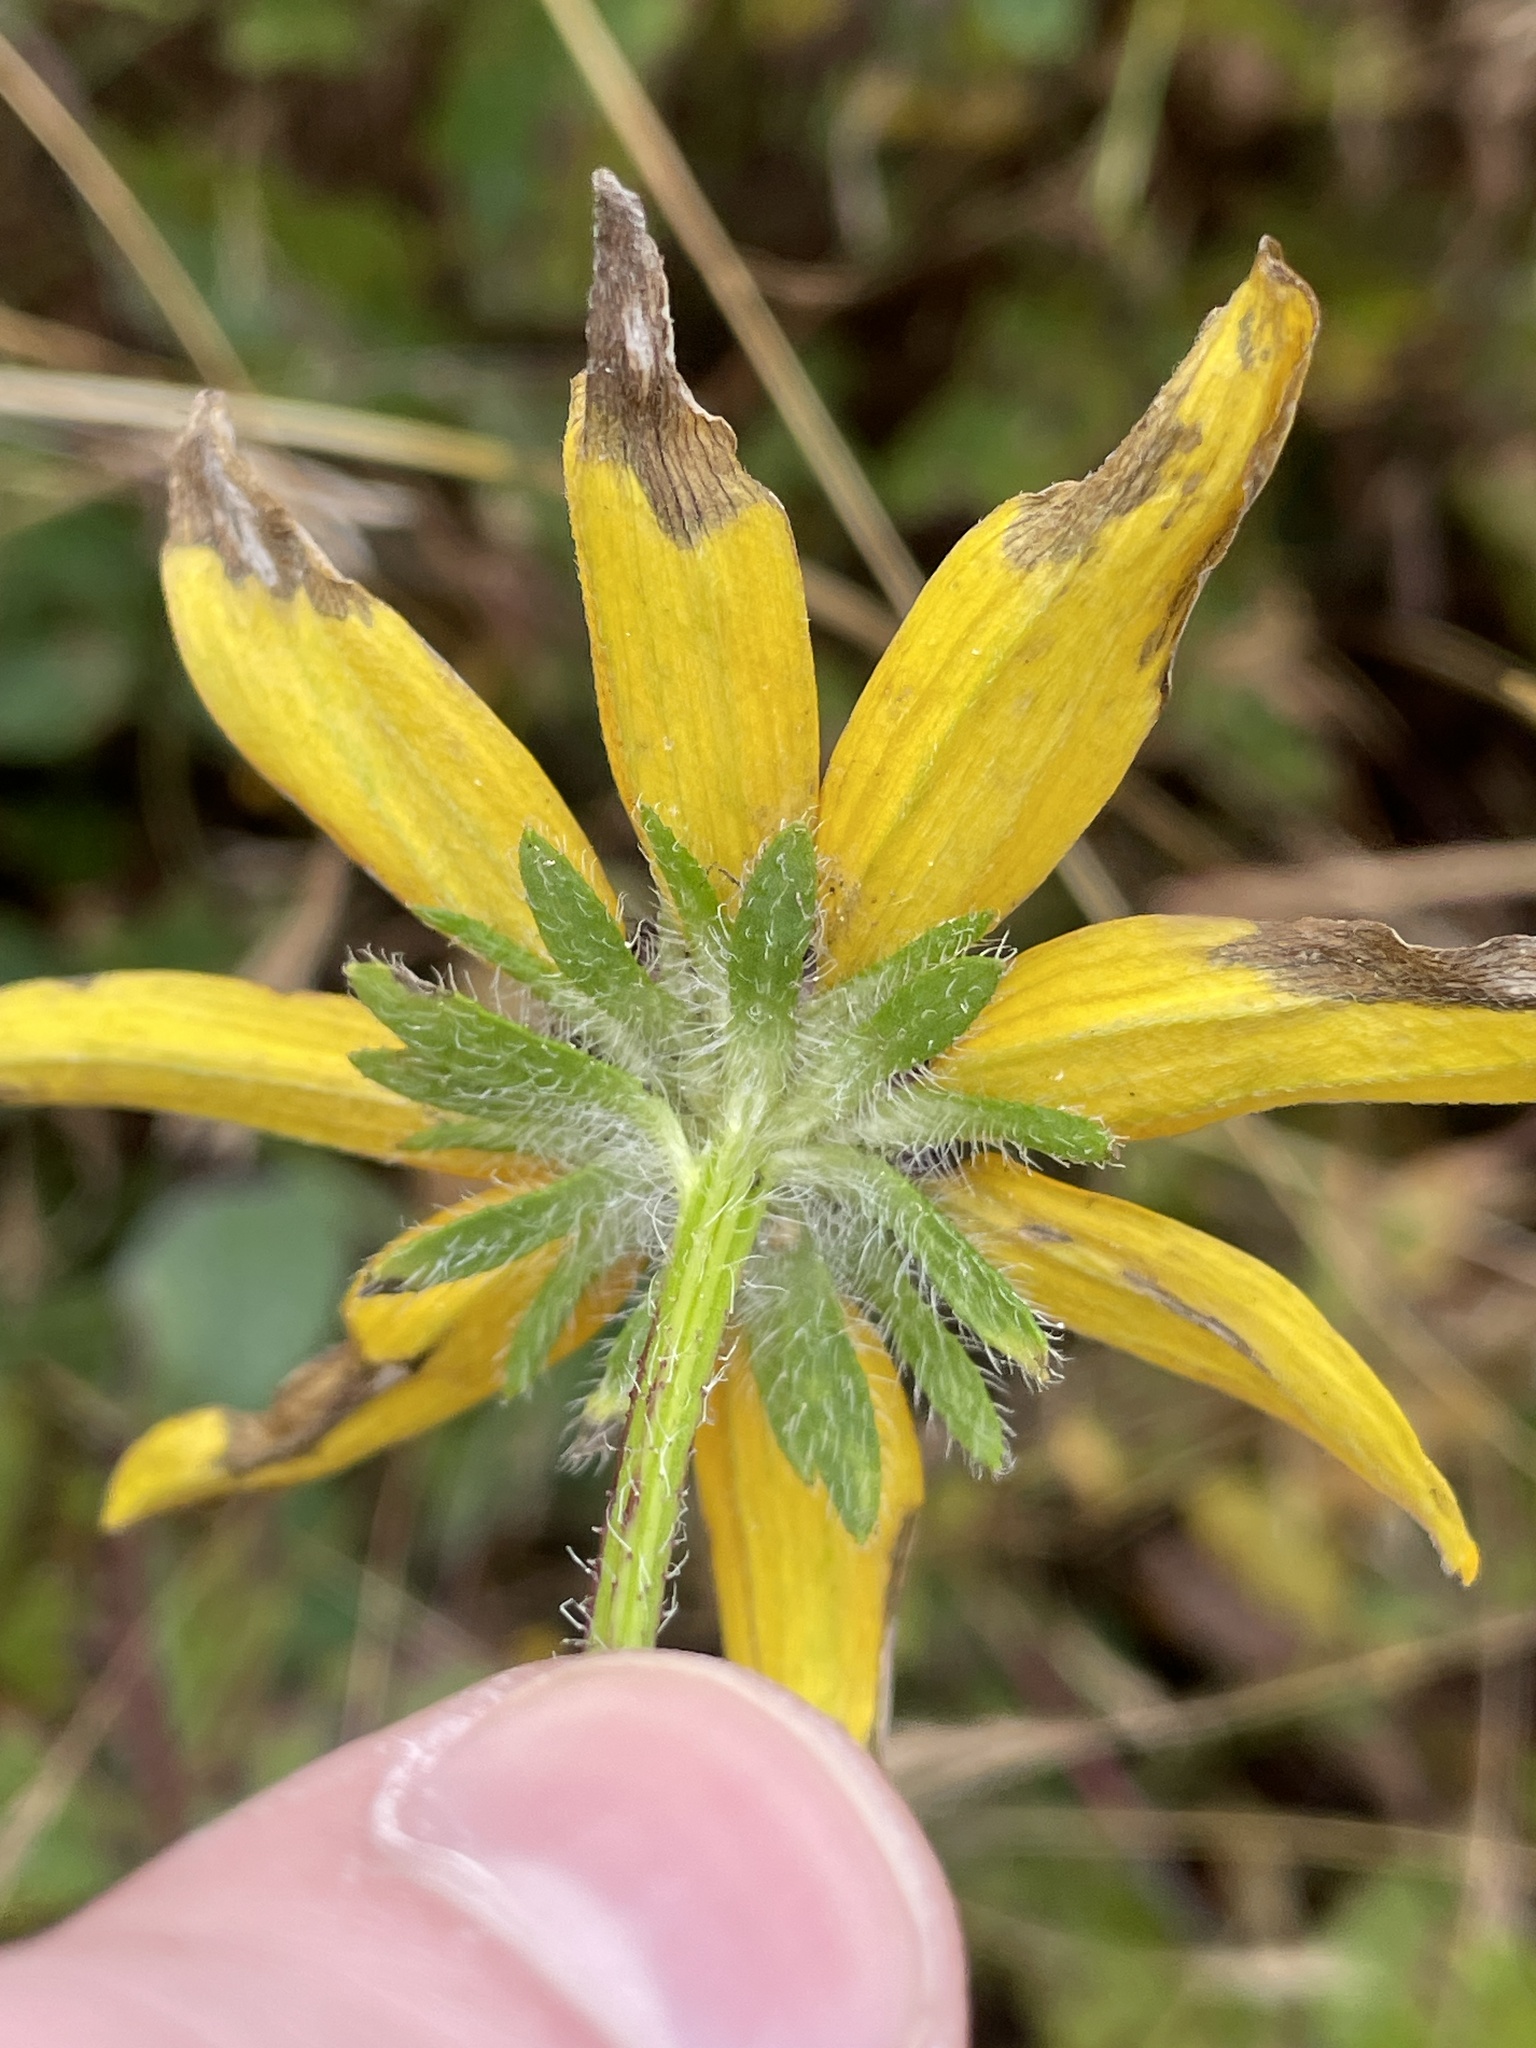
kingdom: Plantae
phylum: Tracheophyta
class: Magnoliopsida
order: Asterales
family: Asteraceae
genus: Rudbeckia
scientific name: Rudbeckia hirta
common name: Black-eyed-susan
